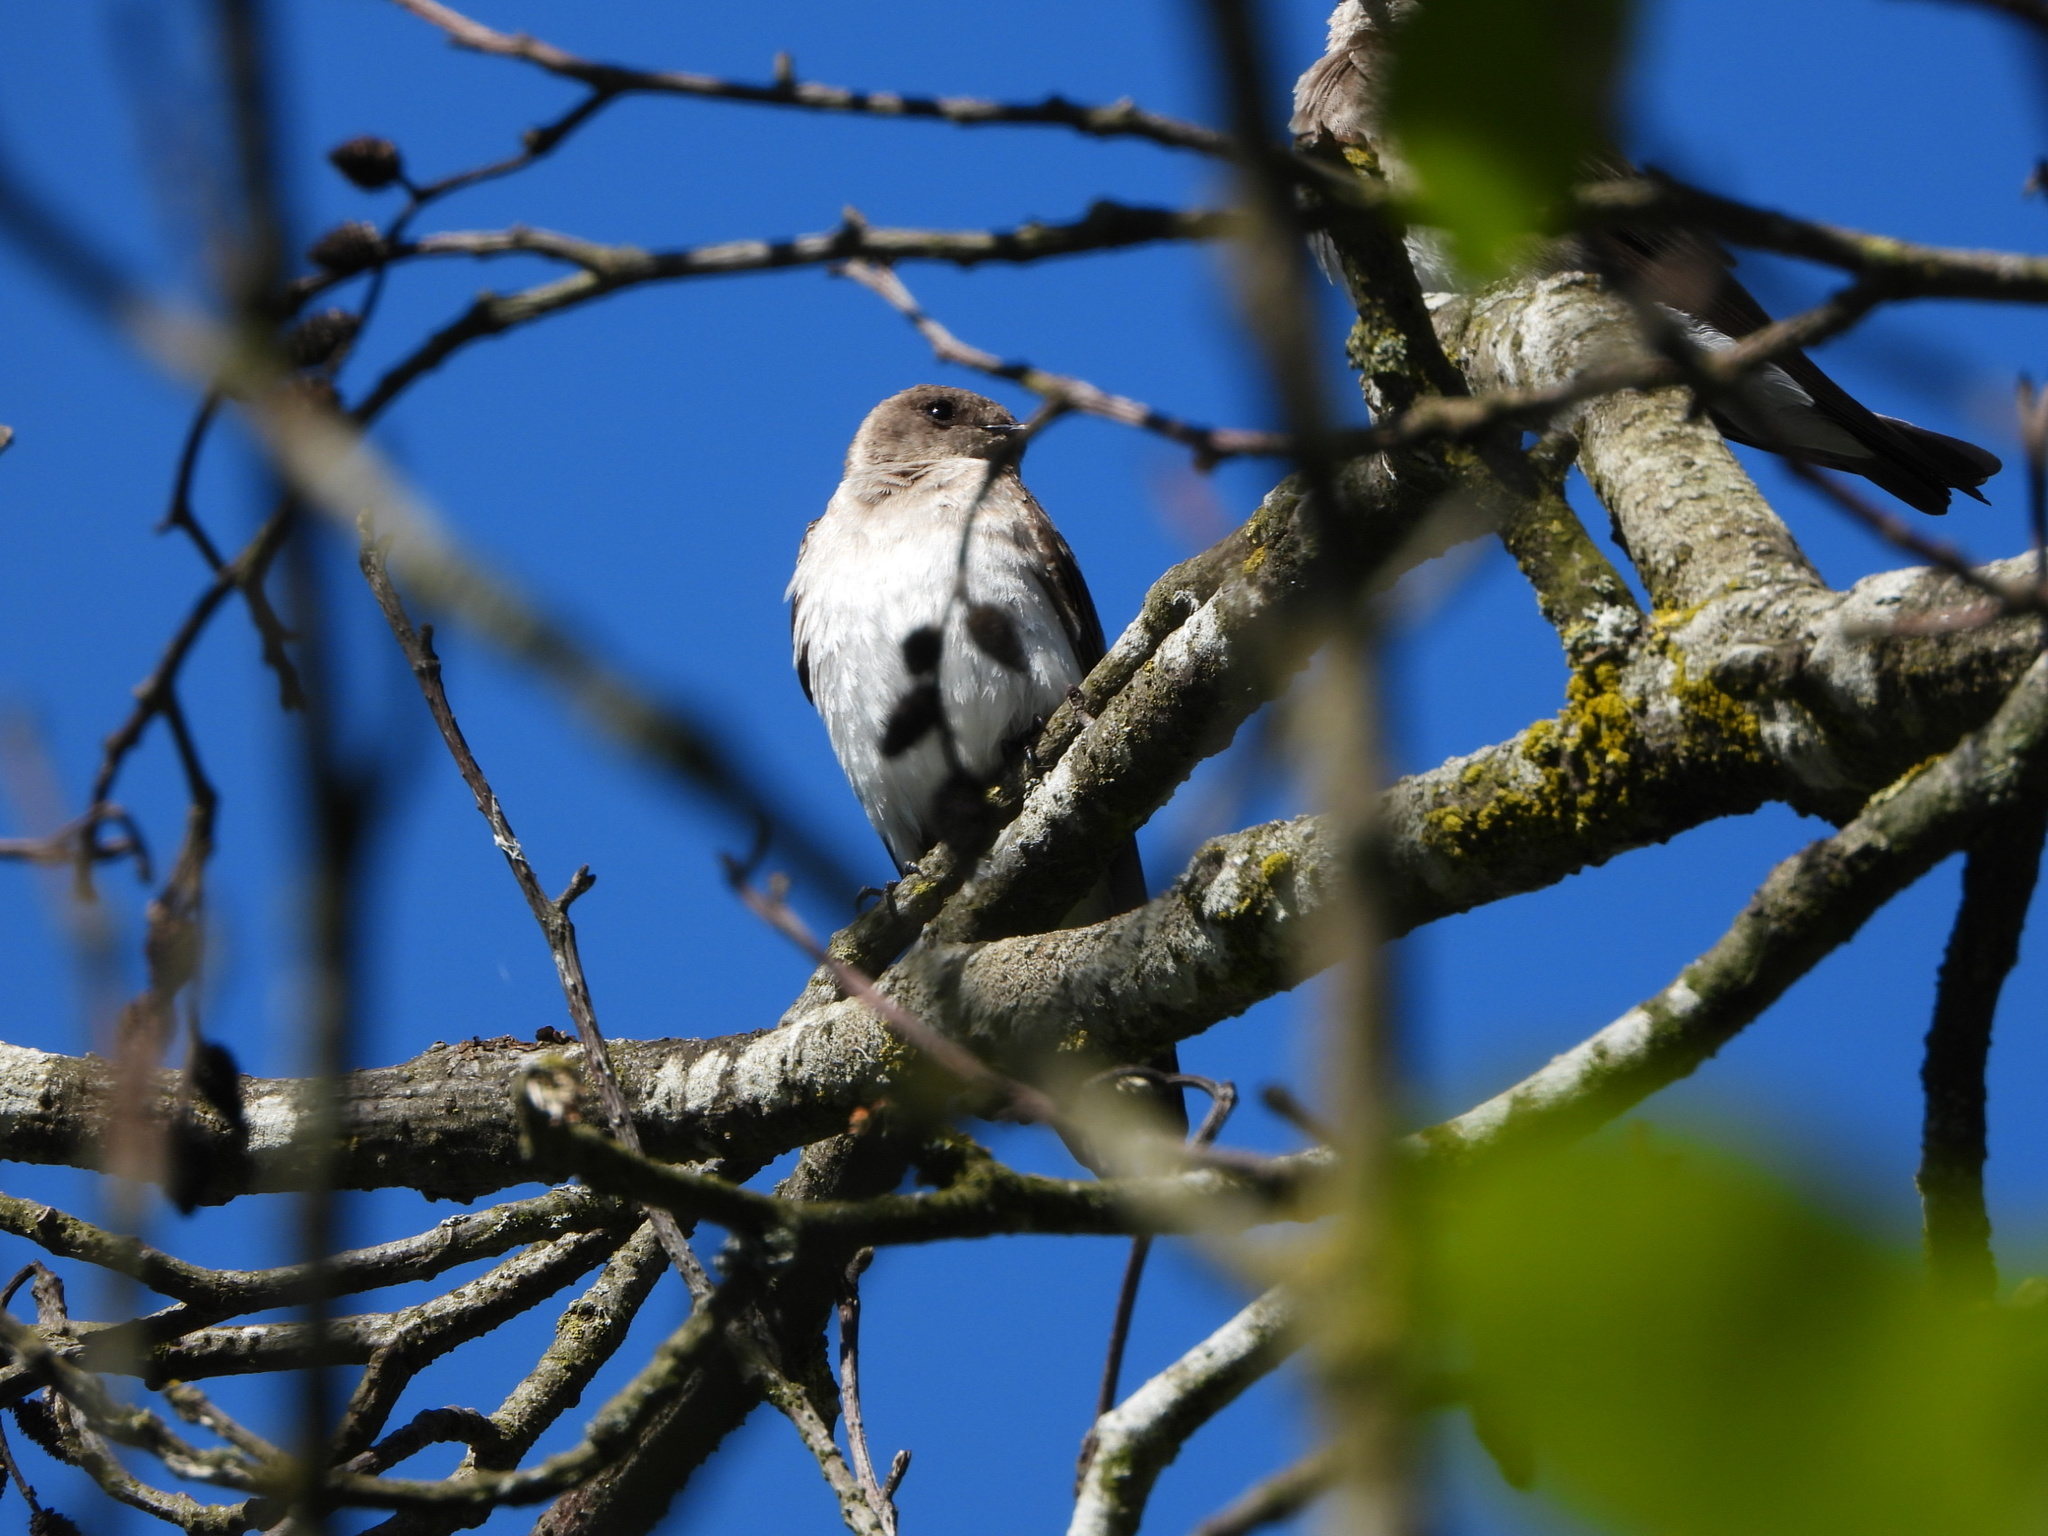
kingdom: Animalia
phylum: Chordata
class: Aves
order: Passeriformes
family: Hirundinidae
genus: Stelgidopteryx
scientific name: Stelgidopteryx serripennis
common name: Northern rough-winged swallow
